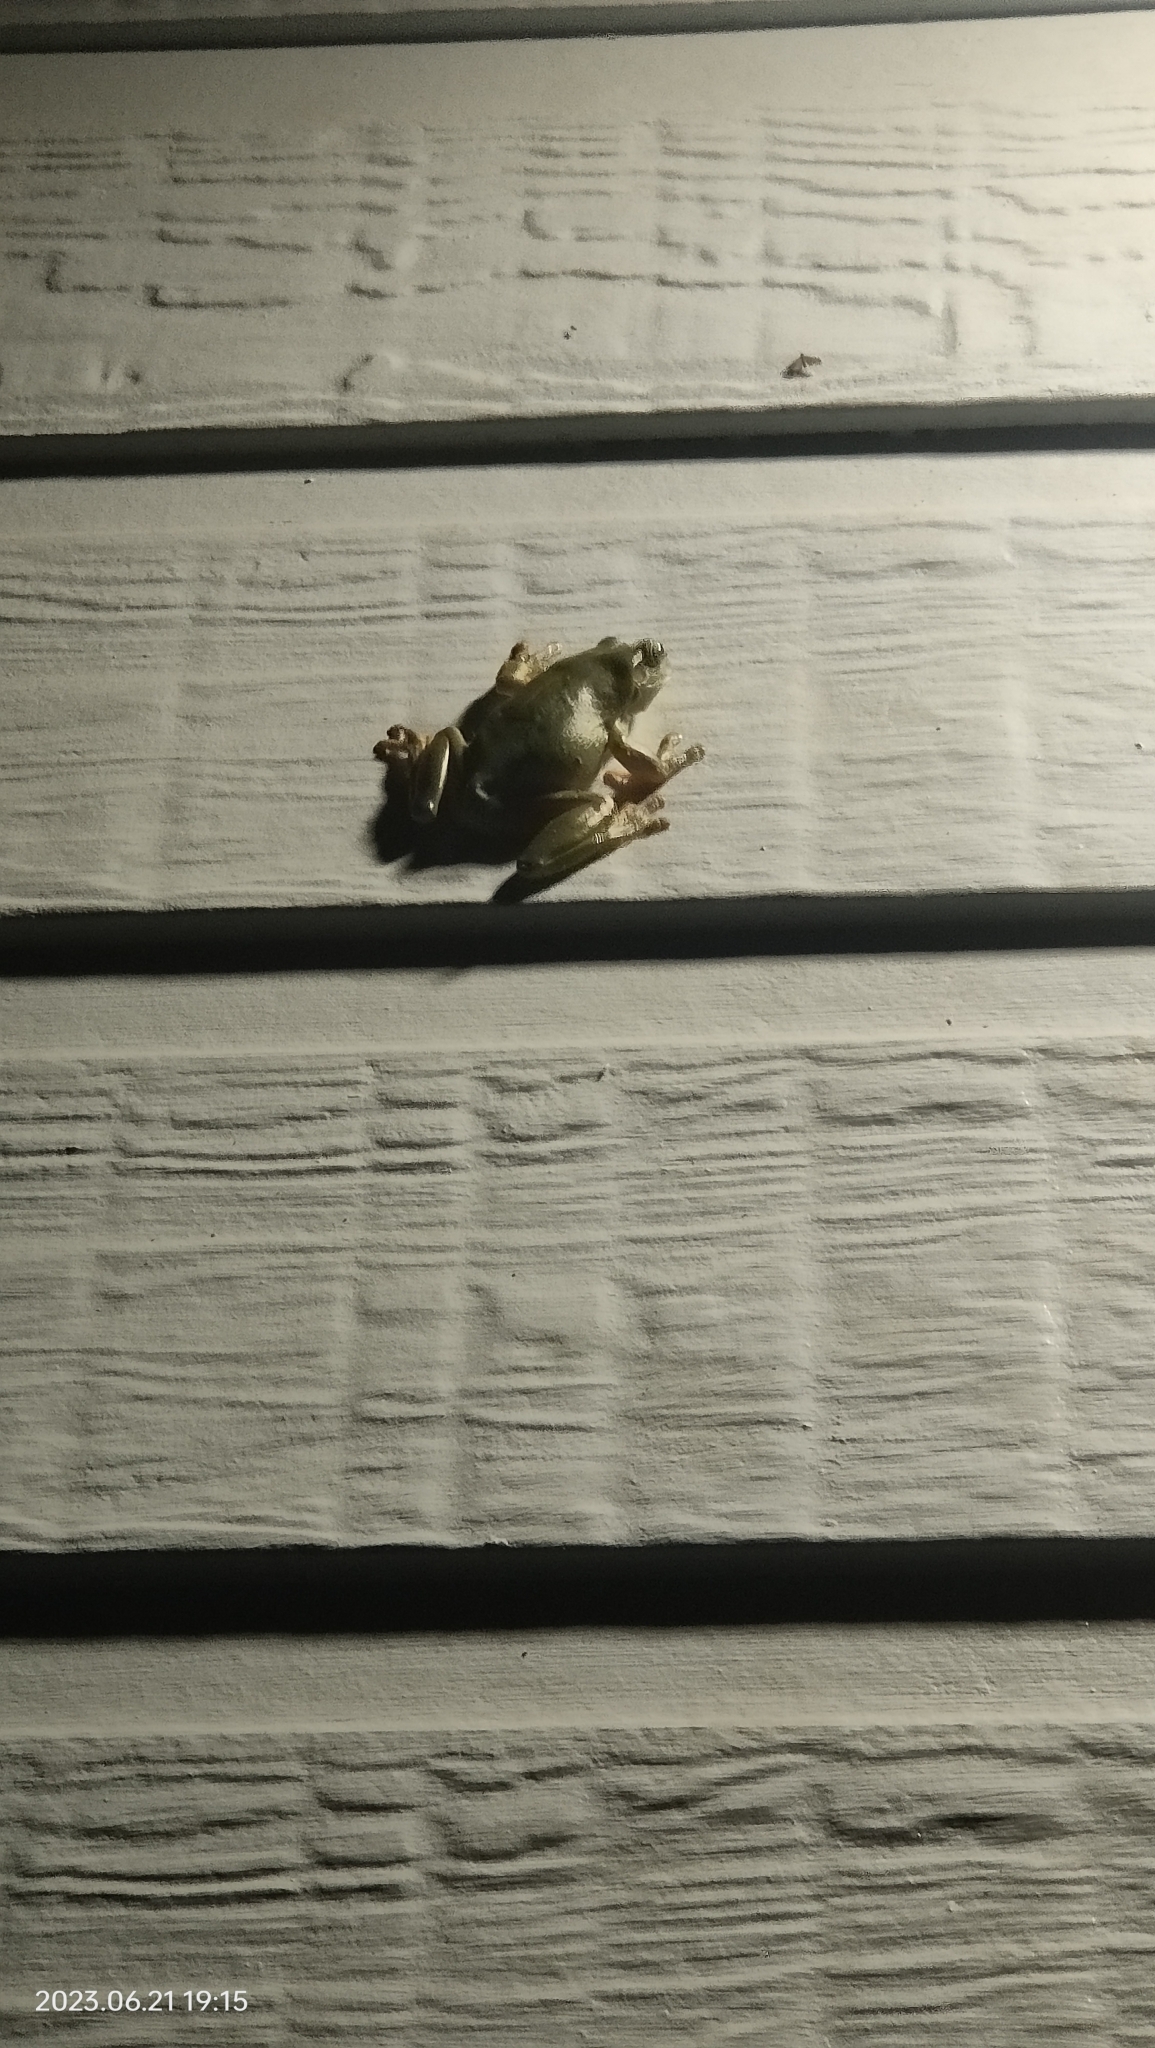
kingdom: Animalia
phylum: Chordata
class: Amphibia
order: Anura
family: Pelodryadidae
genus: Ranoidea
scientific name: Ranoidea caerulea
